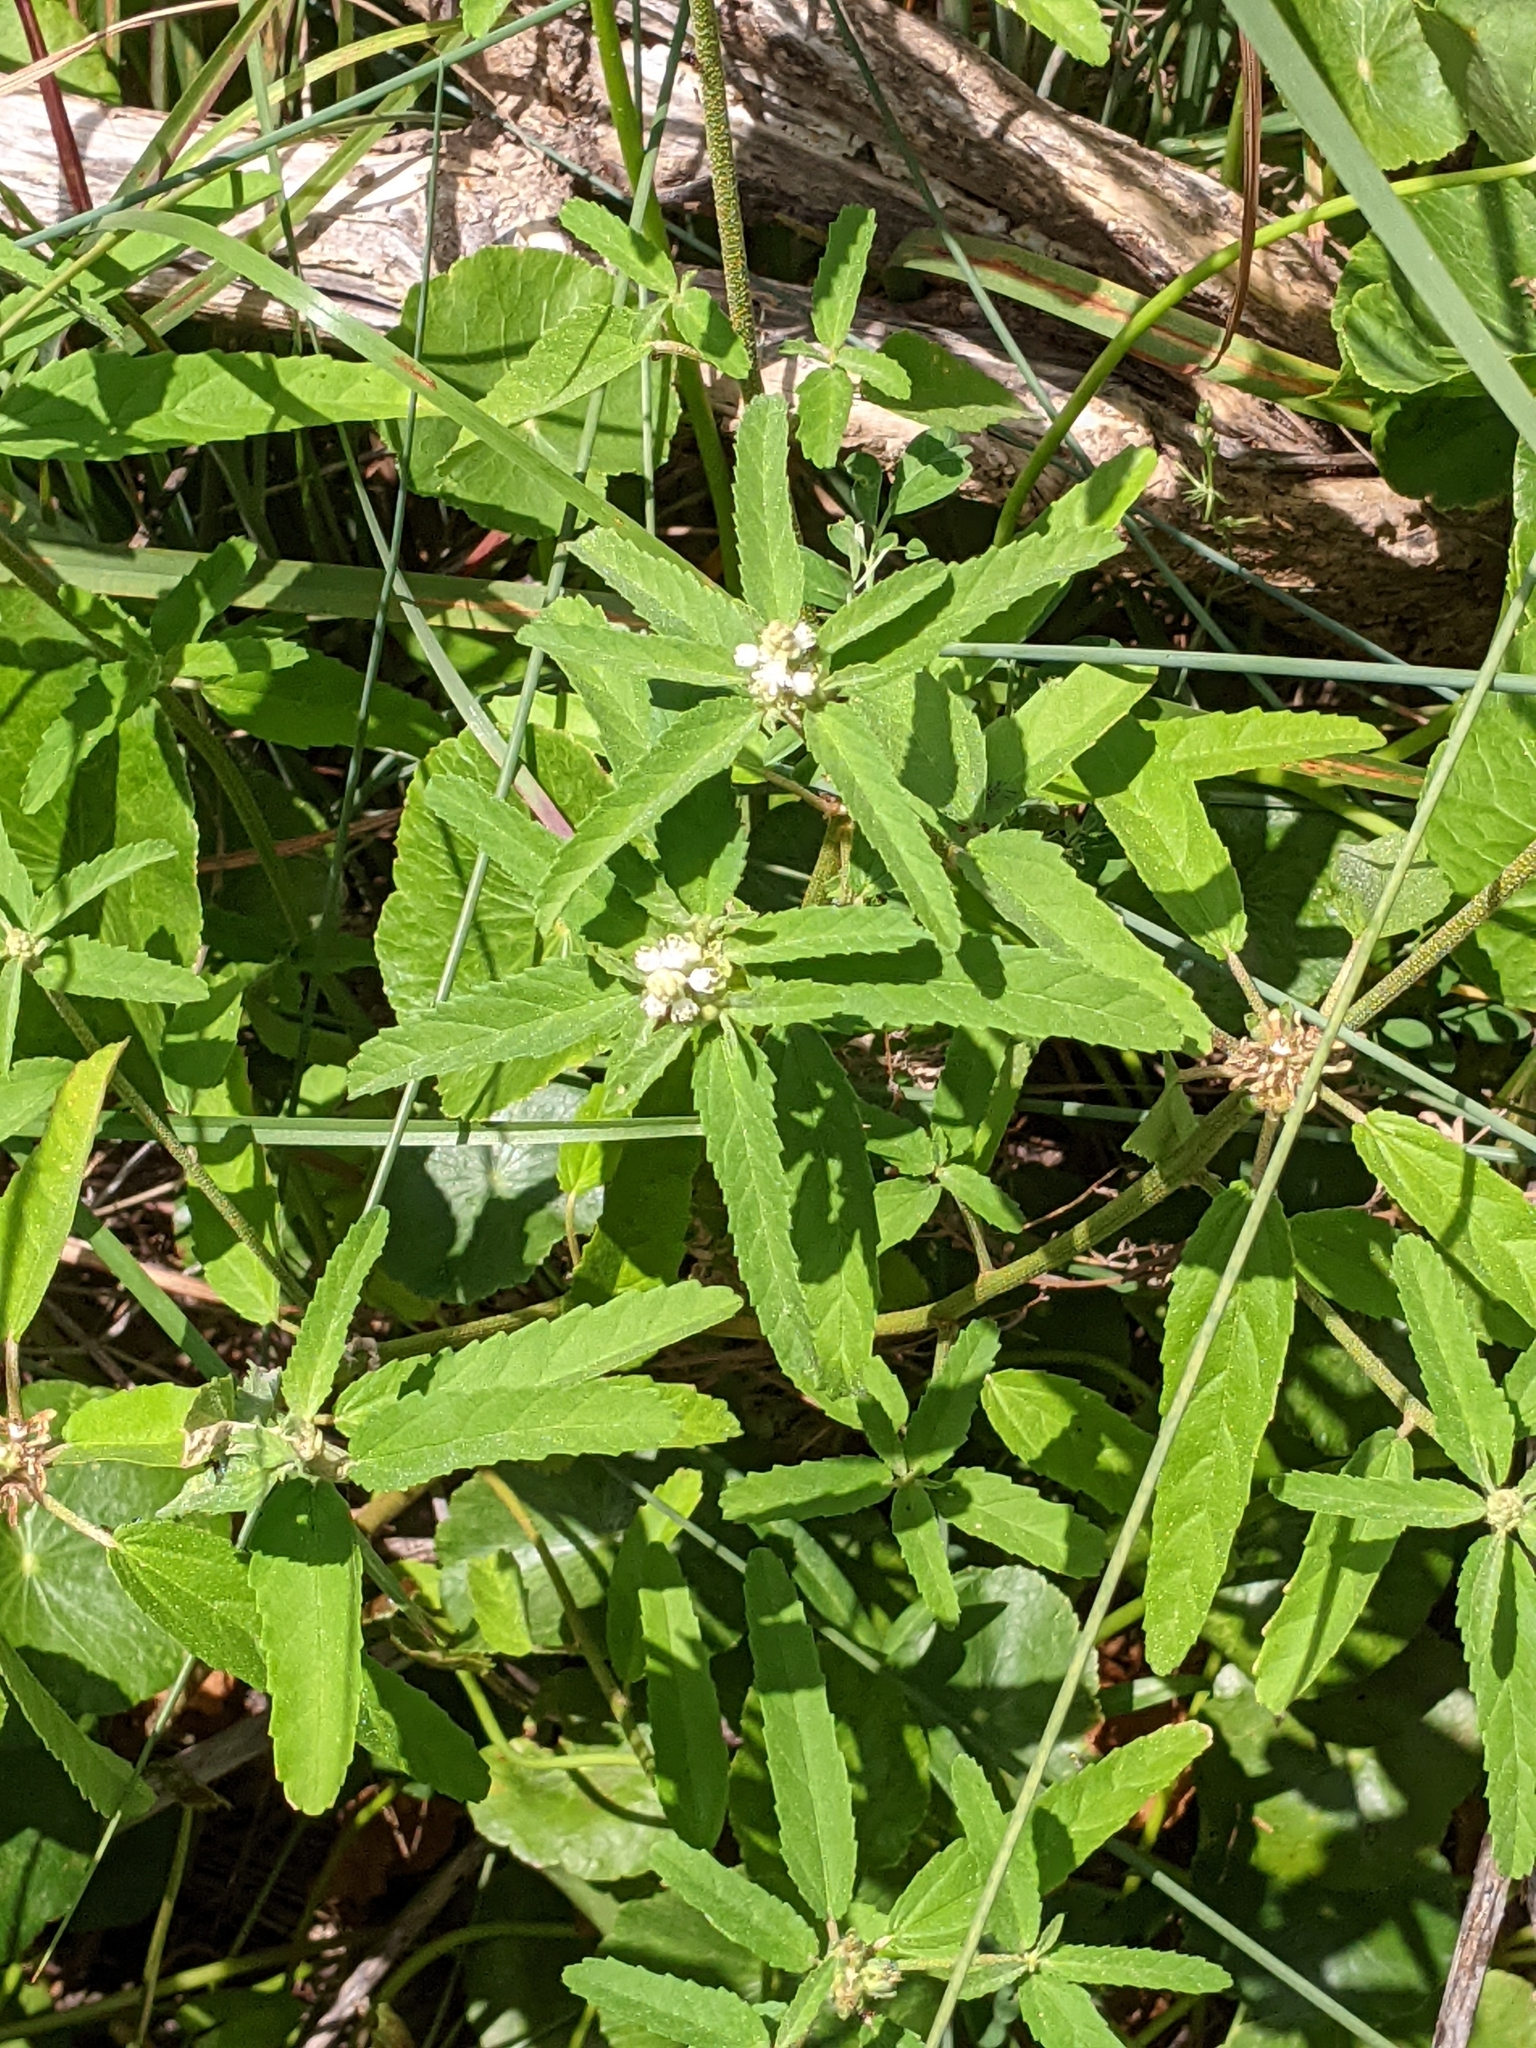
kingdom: Plantae
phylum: Tracheophyta
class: Magnoliopsida
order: Malpighiales
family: Euphorbiaceae
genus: Croton
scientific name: Croton glandulosus
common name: Tropic croton
